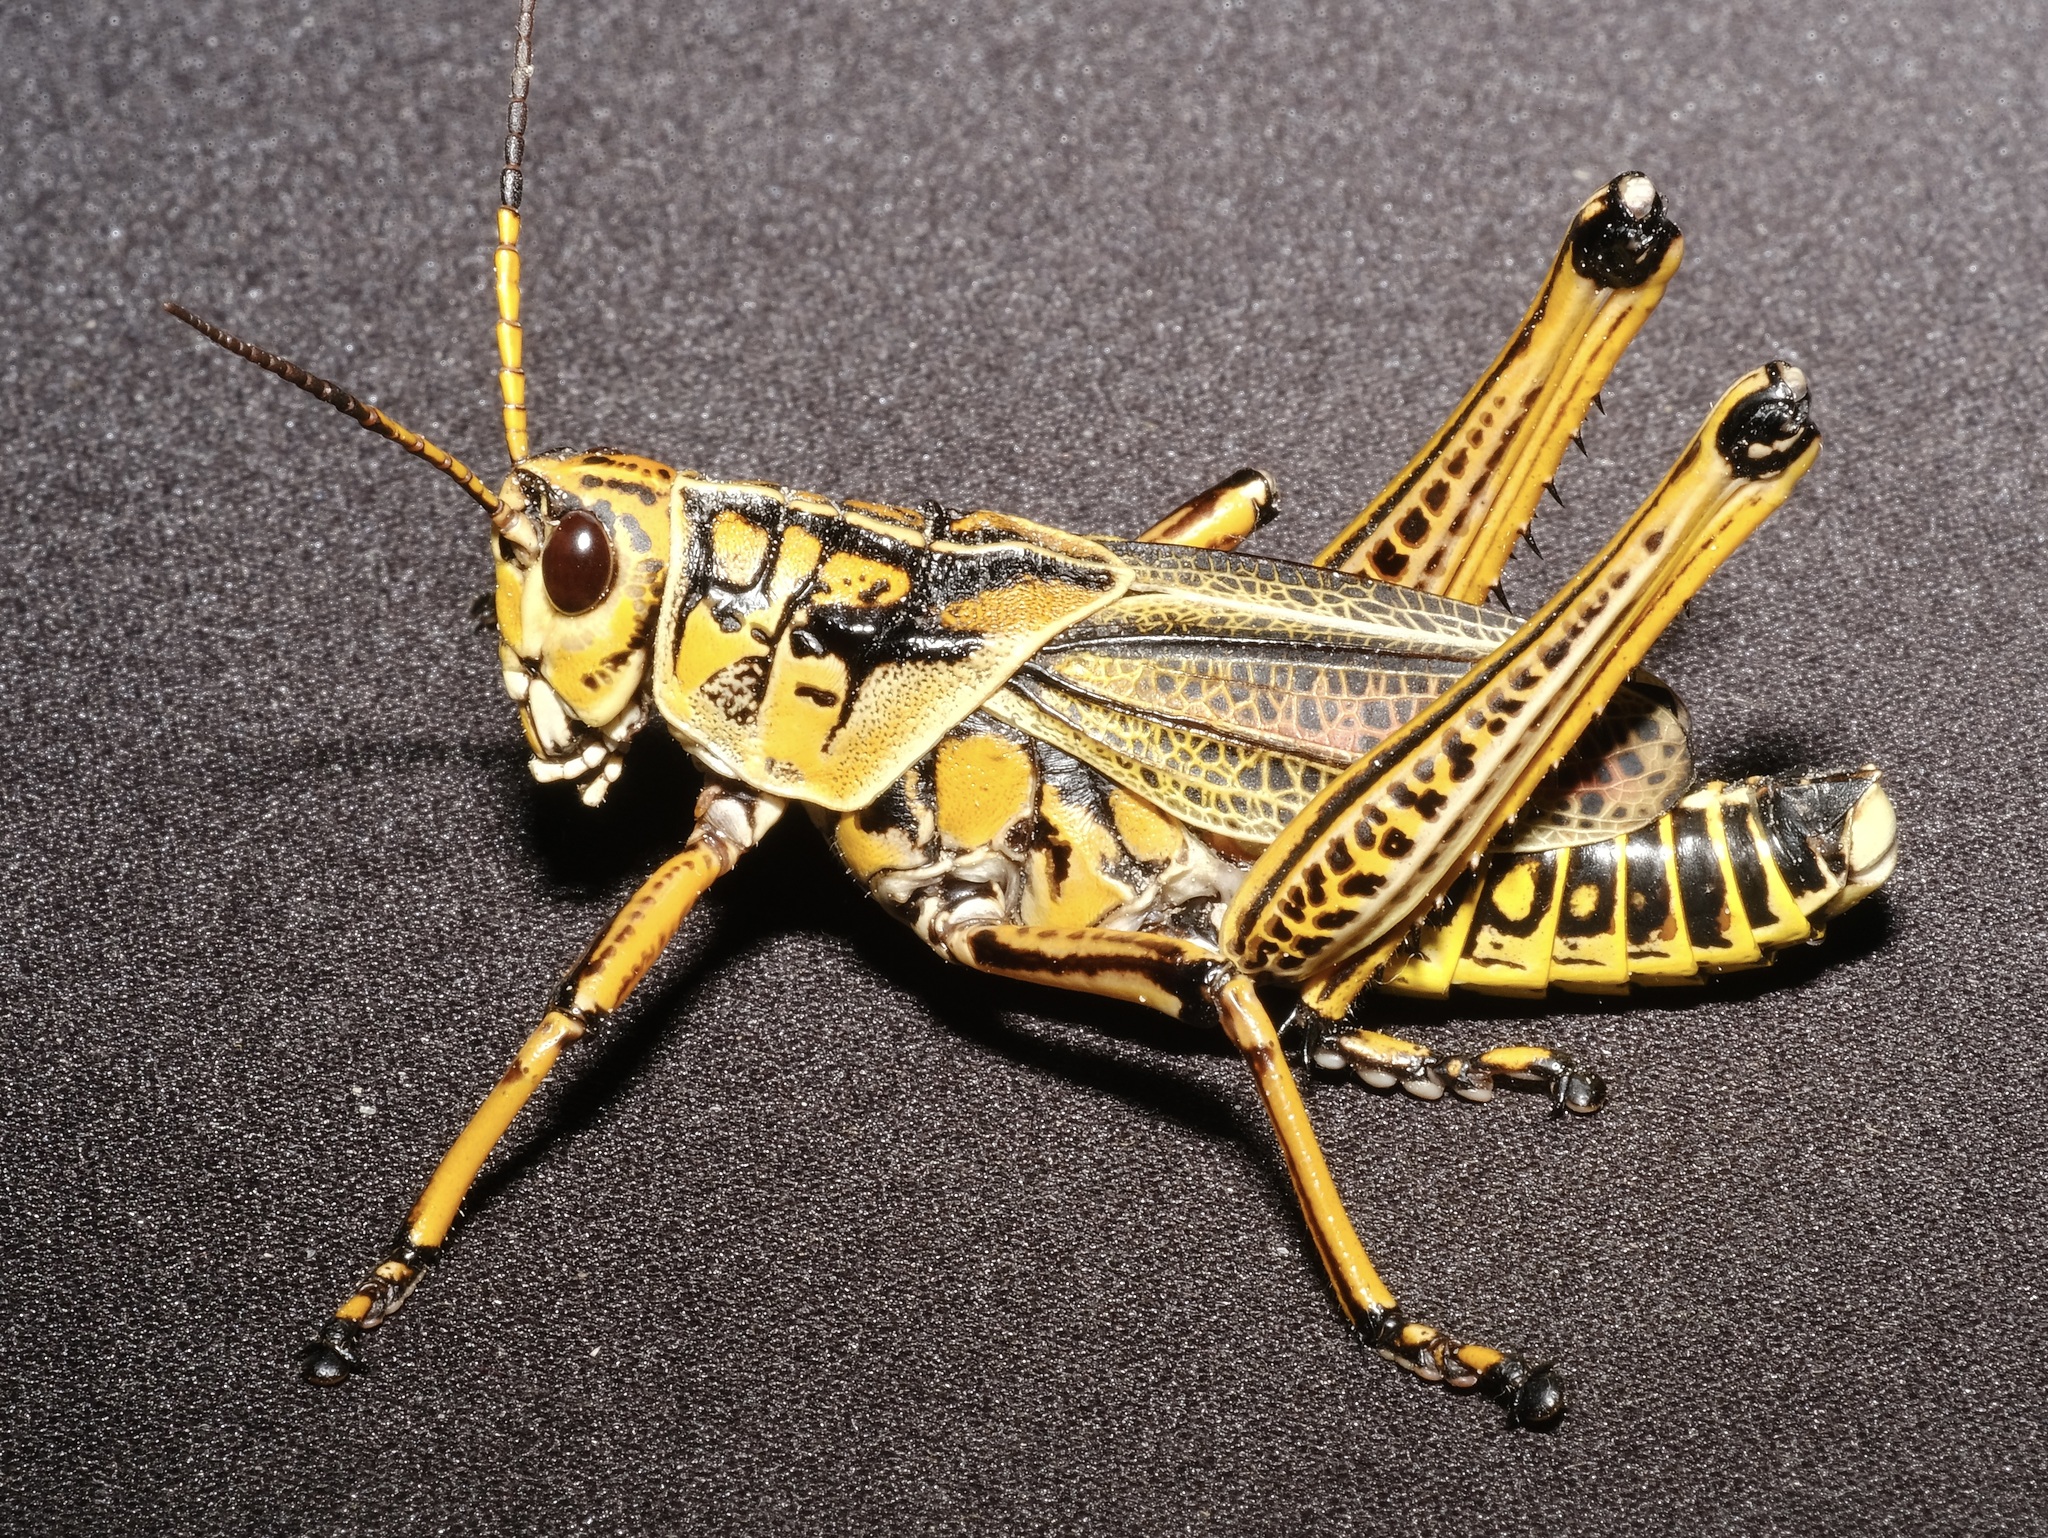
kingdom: Animalia
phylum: Arthropoda
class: Insecta
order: Orthoptera
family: Romaleidae
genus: Romalea
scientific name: Romalea microptera
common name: Eastern lubber grasshopper
